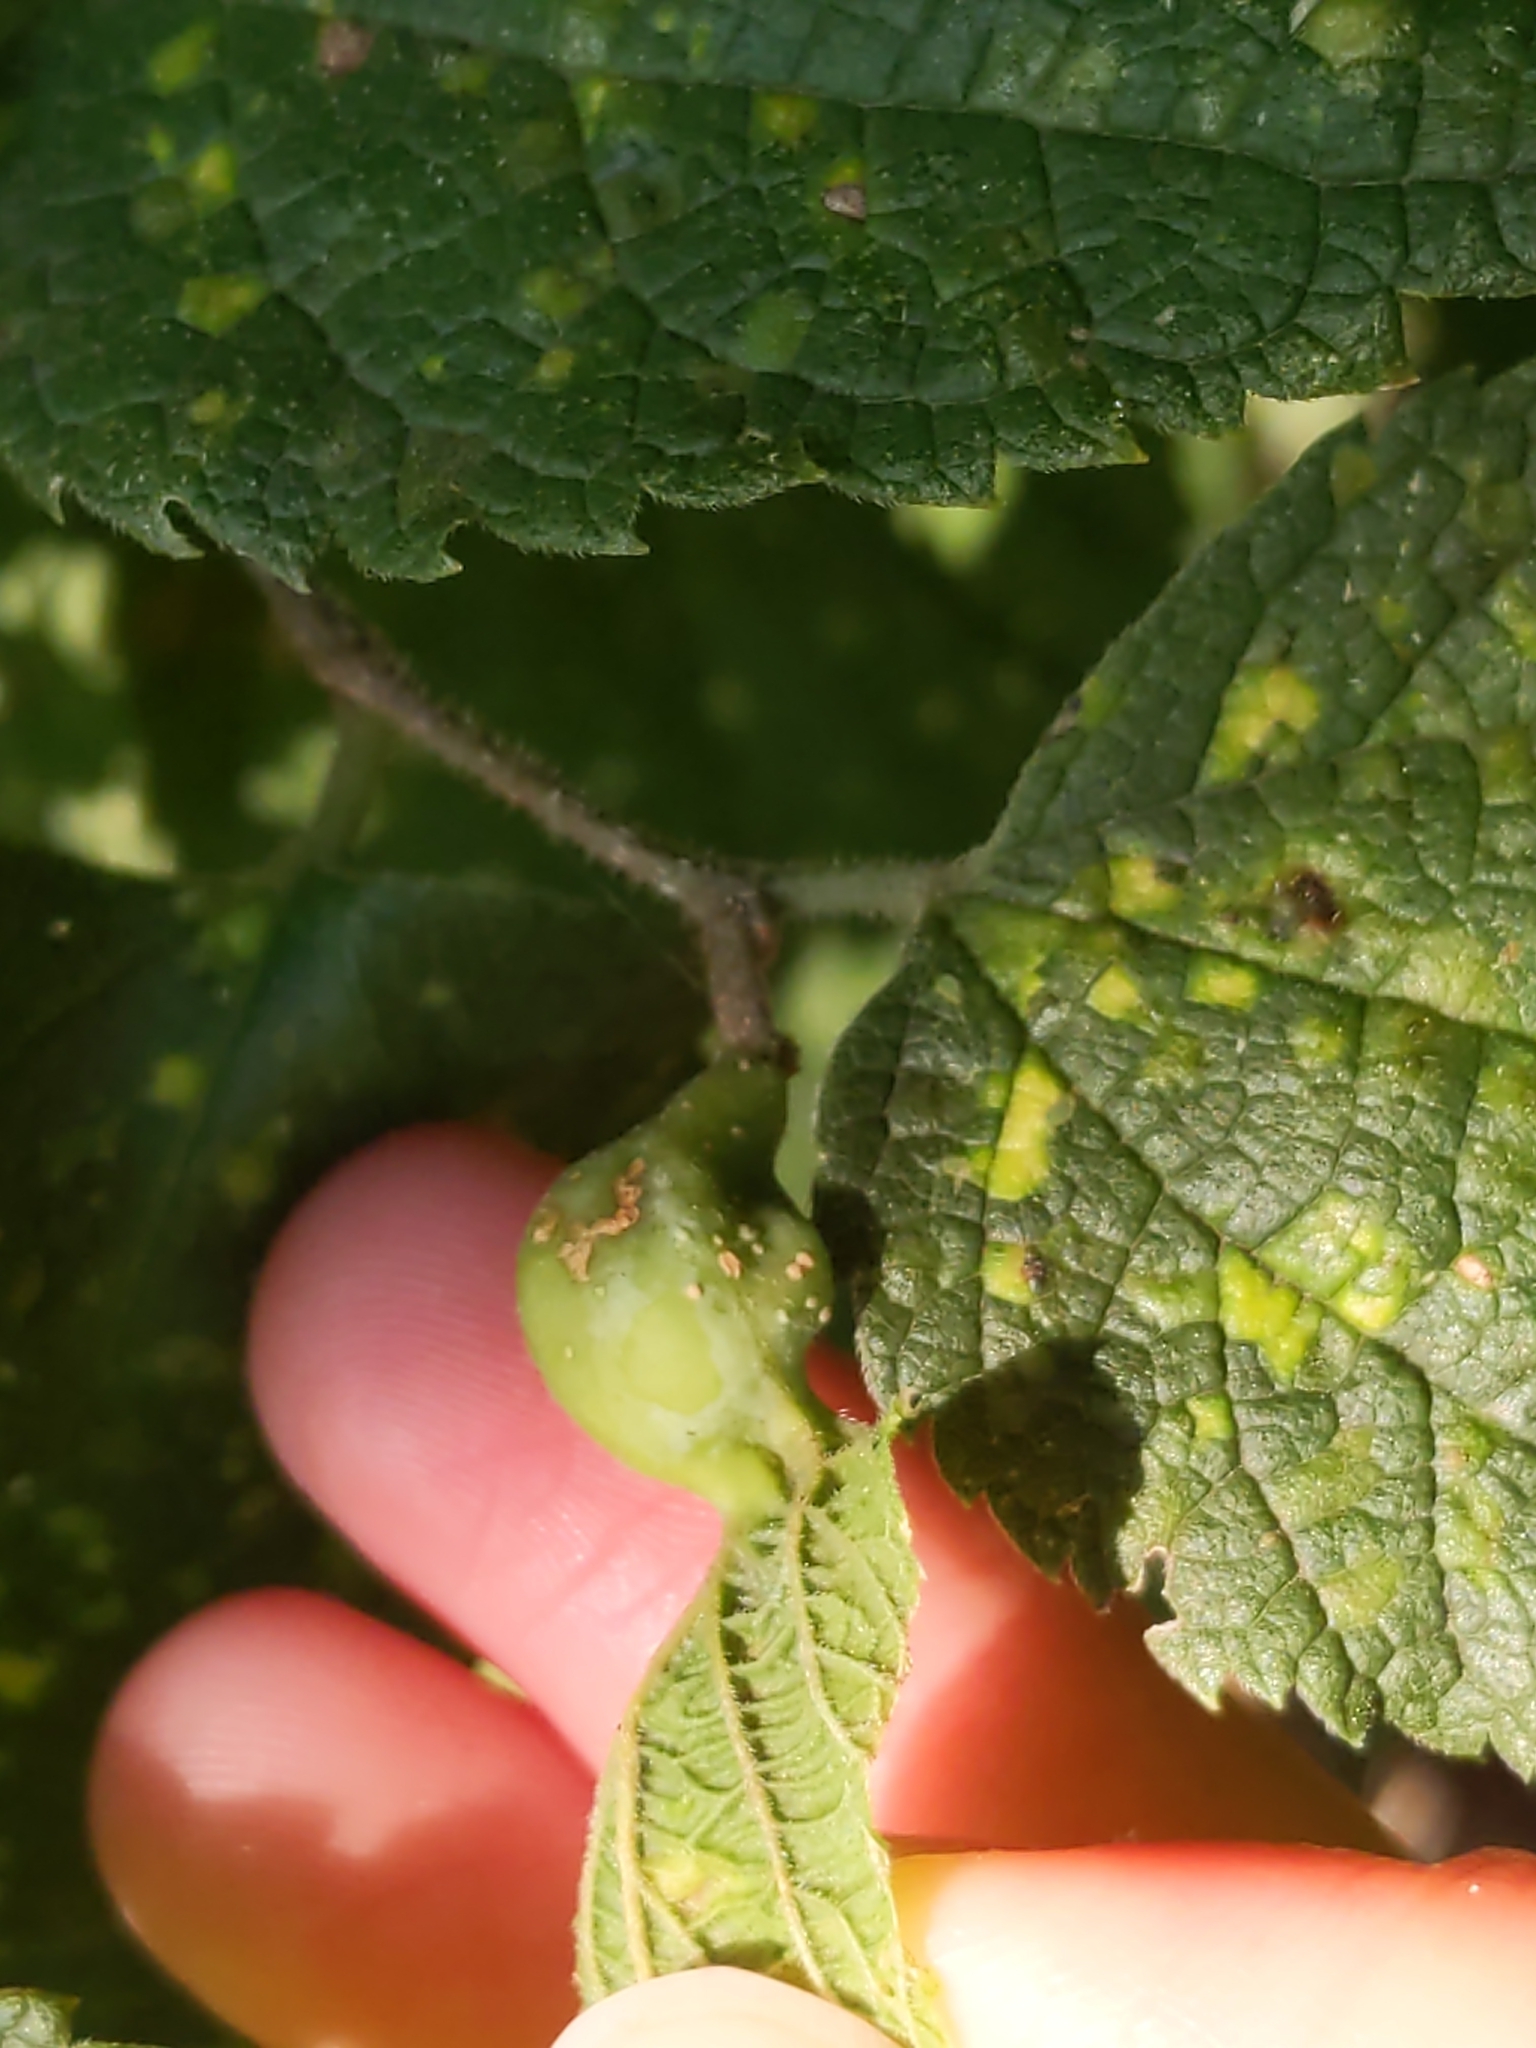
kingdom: Animalia
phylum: Arthropoda
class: Insecta
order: Hemiptera
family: Aphalaridae
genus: Pachypsylla
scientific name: Pachypsylla venusta
